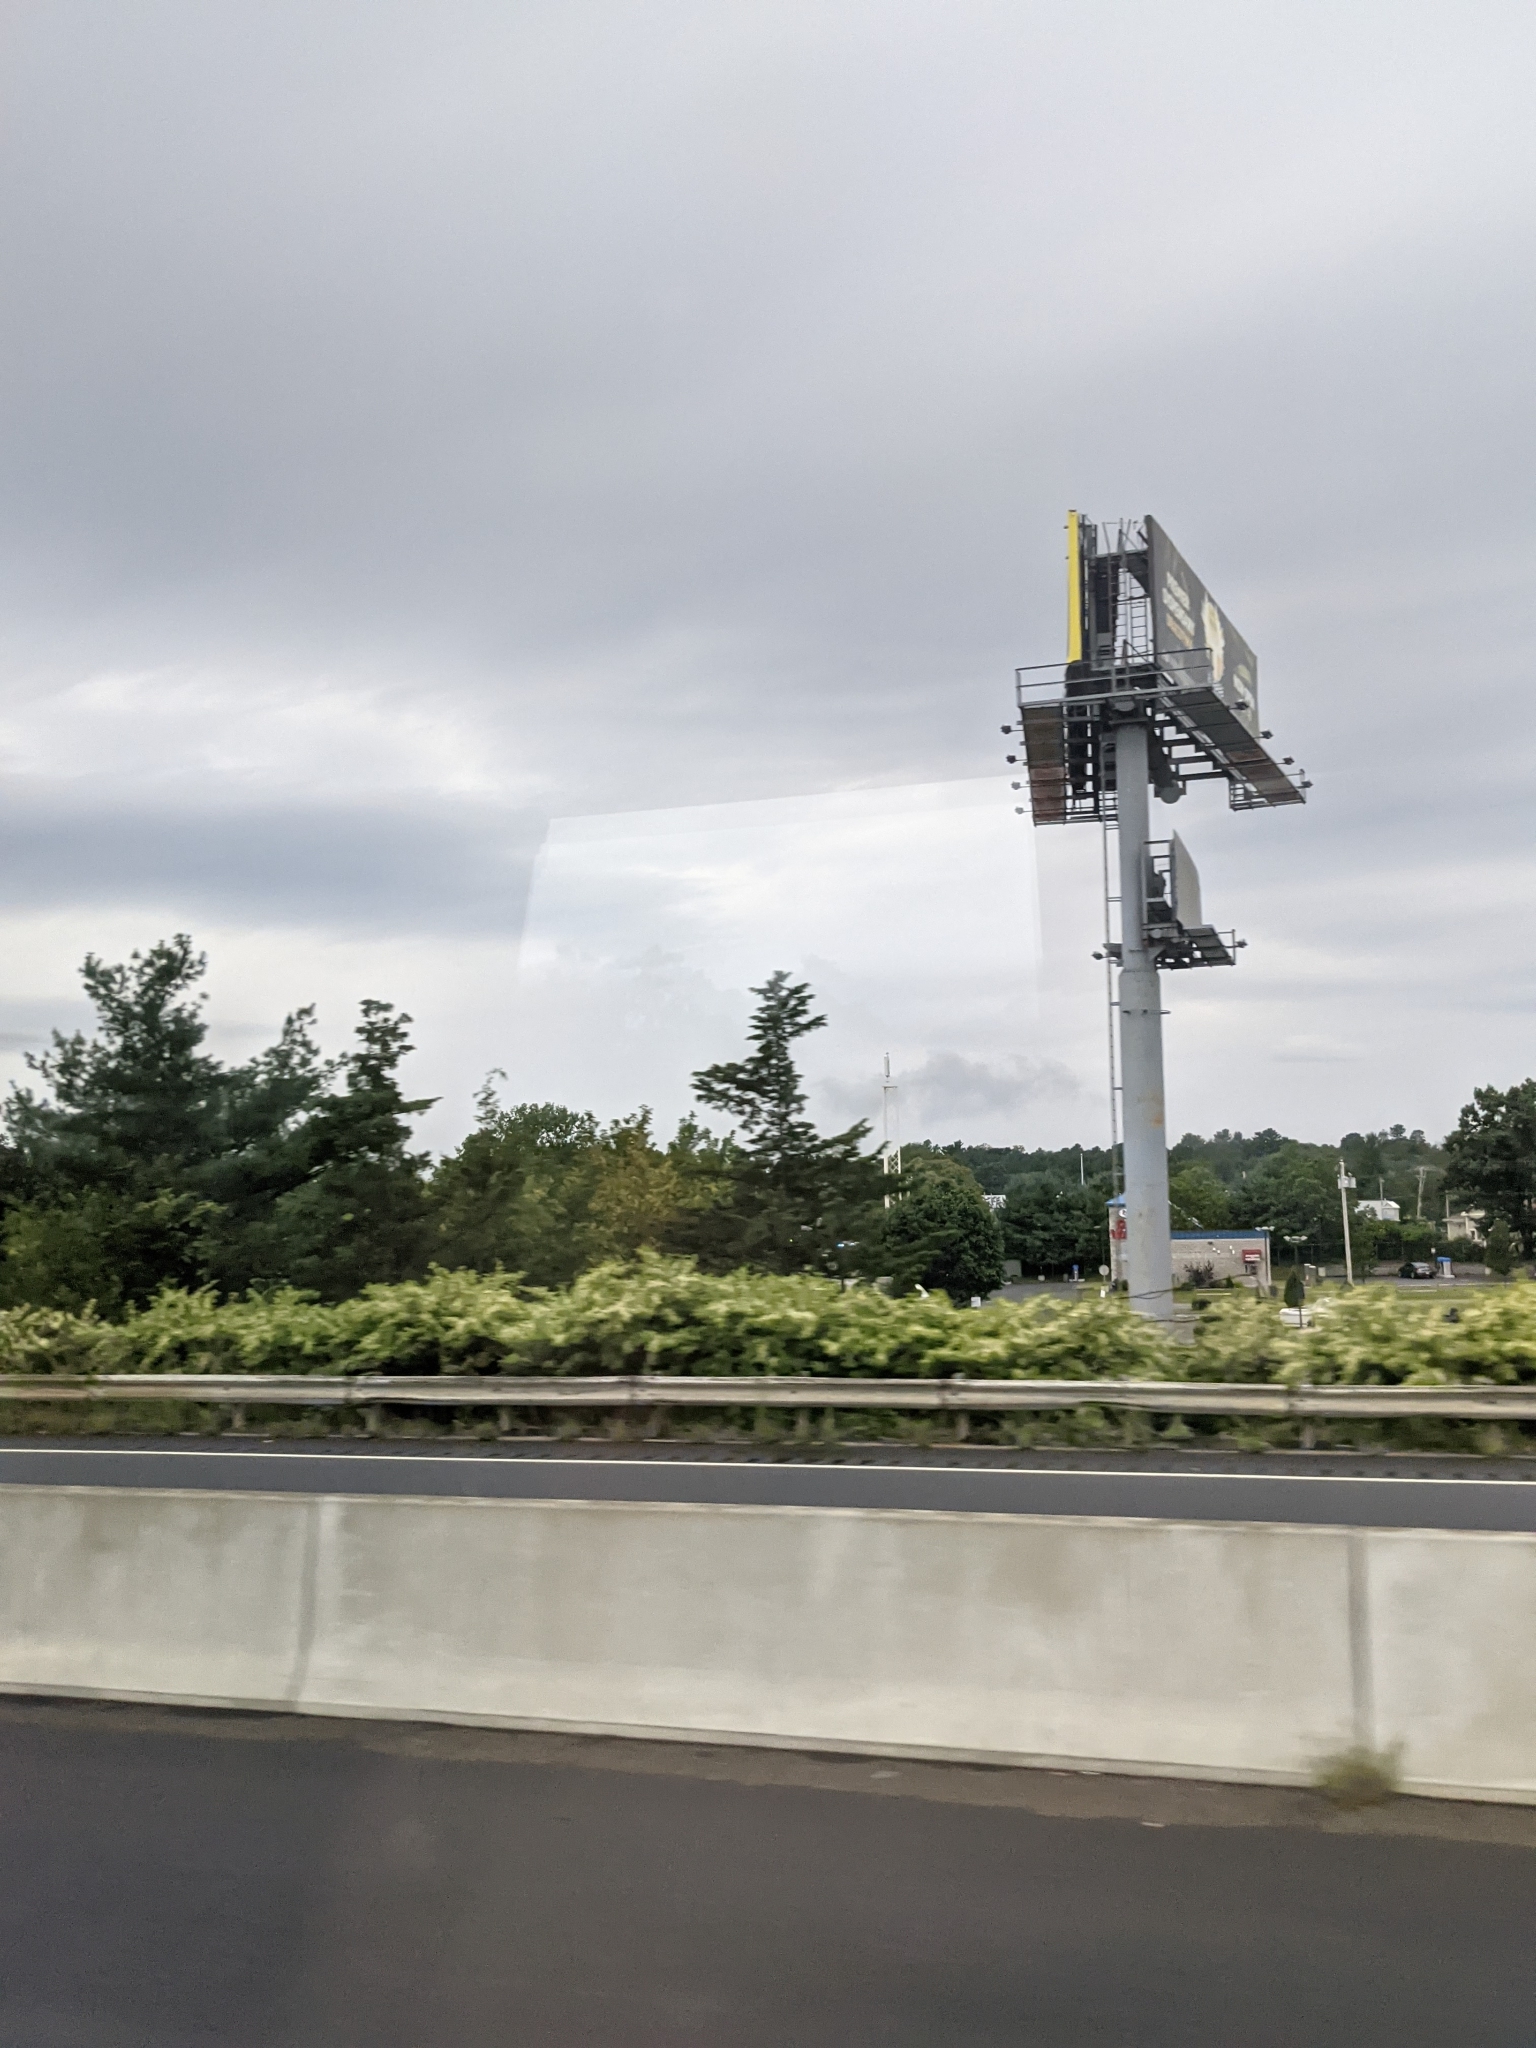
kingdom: Plantae
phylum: Tracheophyta
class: Pinopsida
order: Pinales
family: Pinaceae
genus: Pinus
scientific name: Pinus strobus
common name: Weymouth pine
